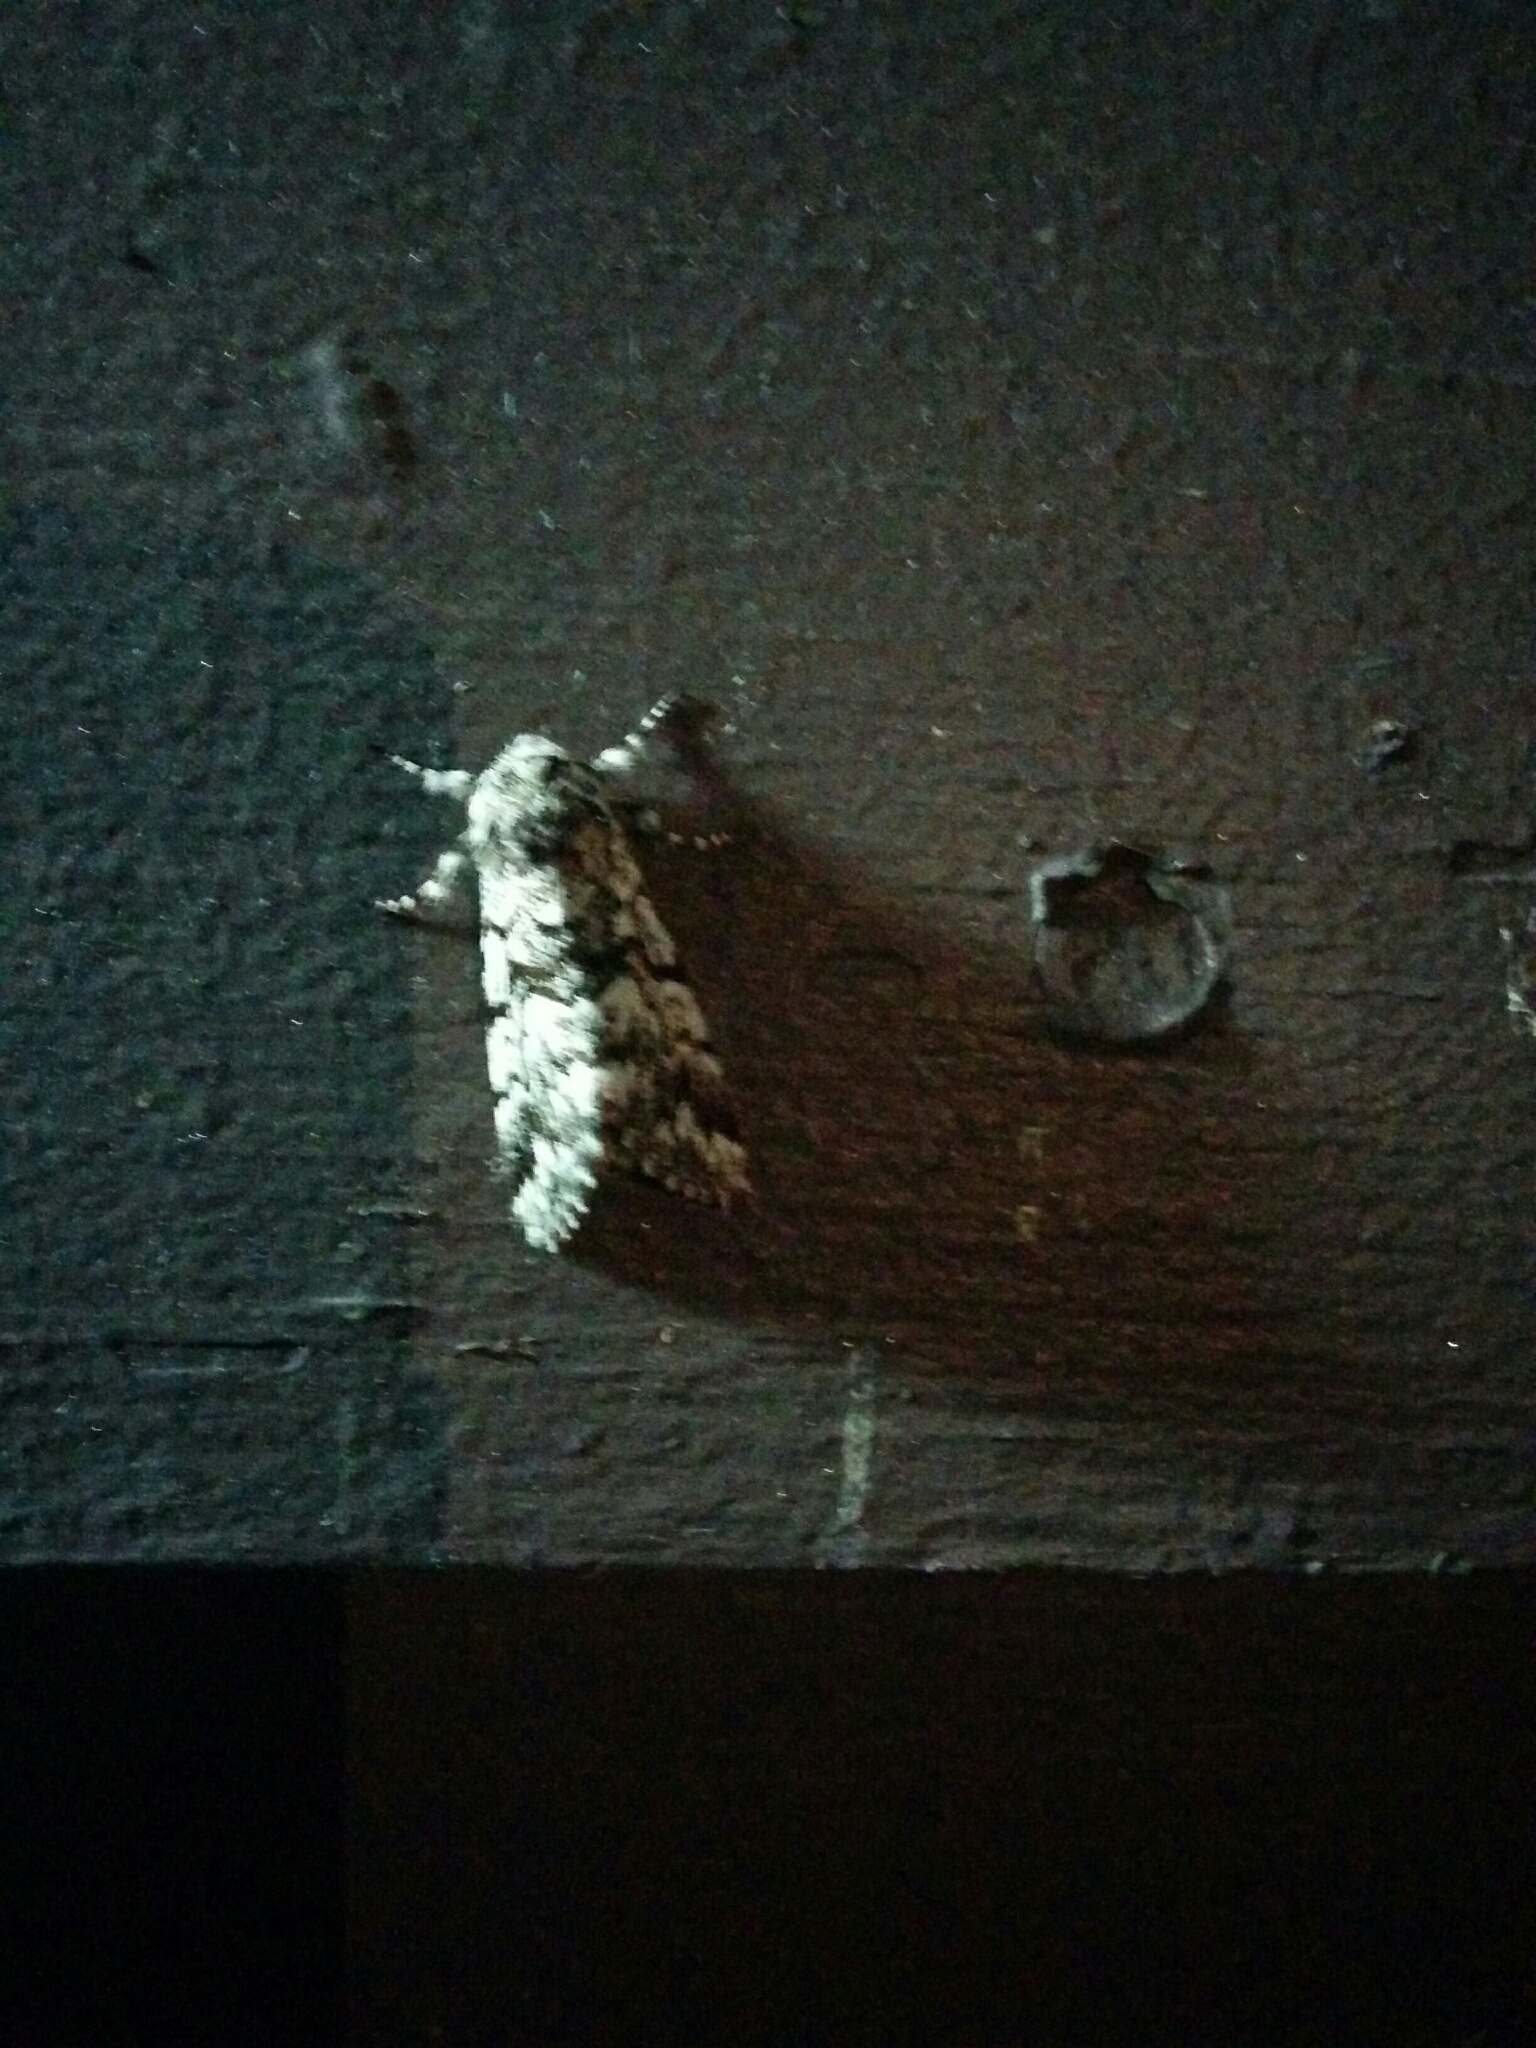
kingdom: Animalia
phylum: Arthropoda
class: Insecta
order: Lepidoptera
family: Noctuidae
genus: Panthea
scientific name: Panthea acronyctoides
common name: Black zigzag moth
